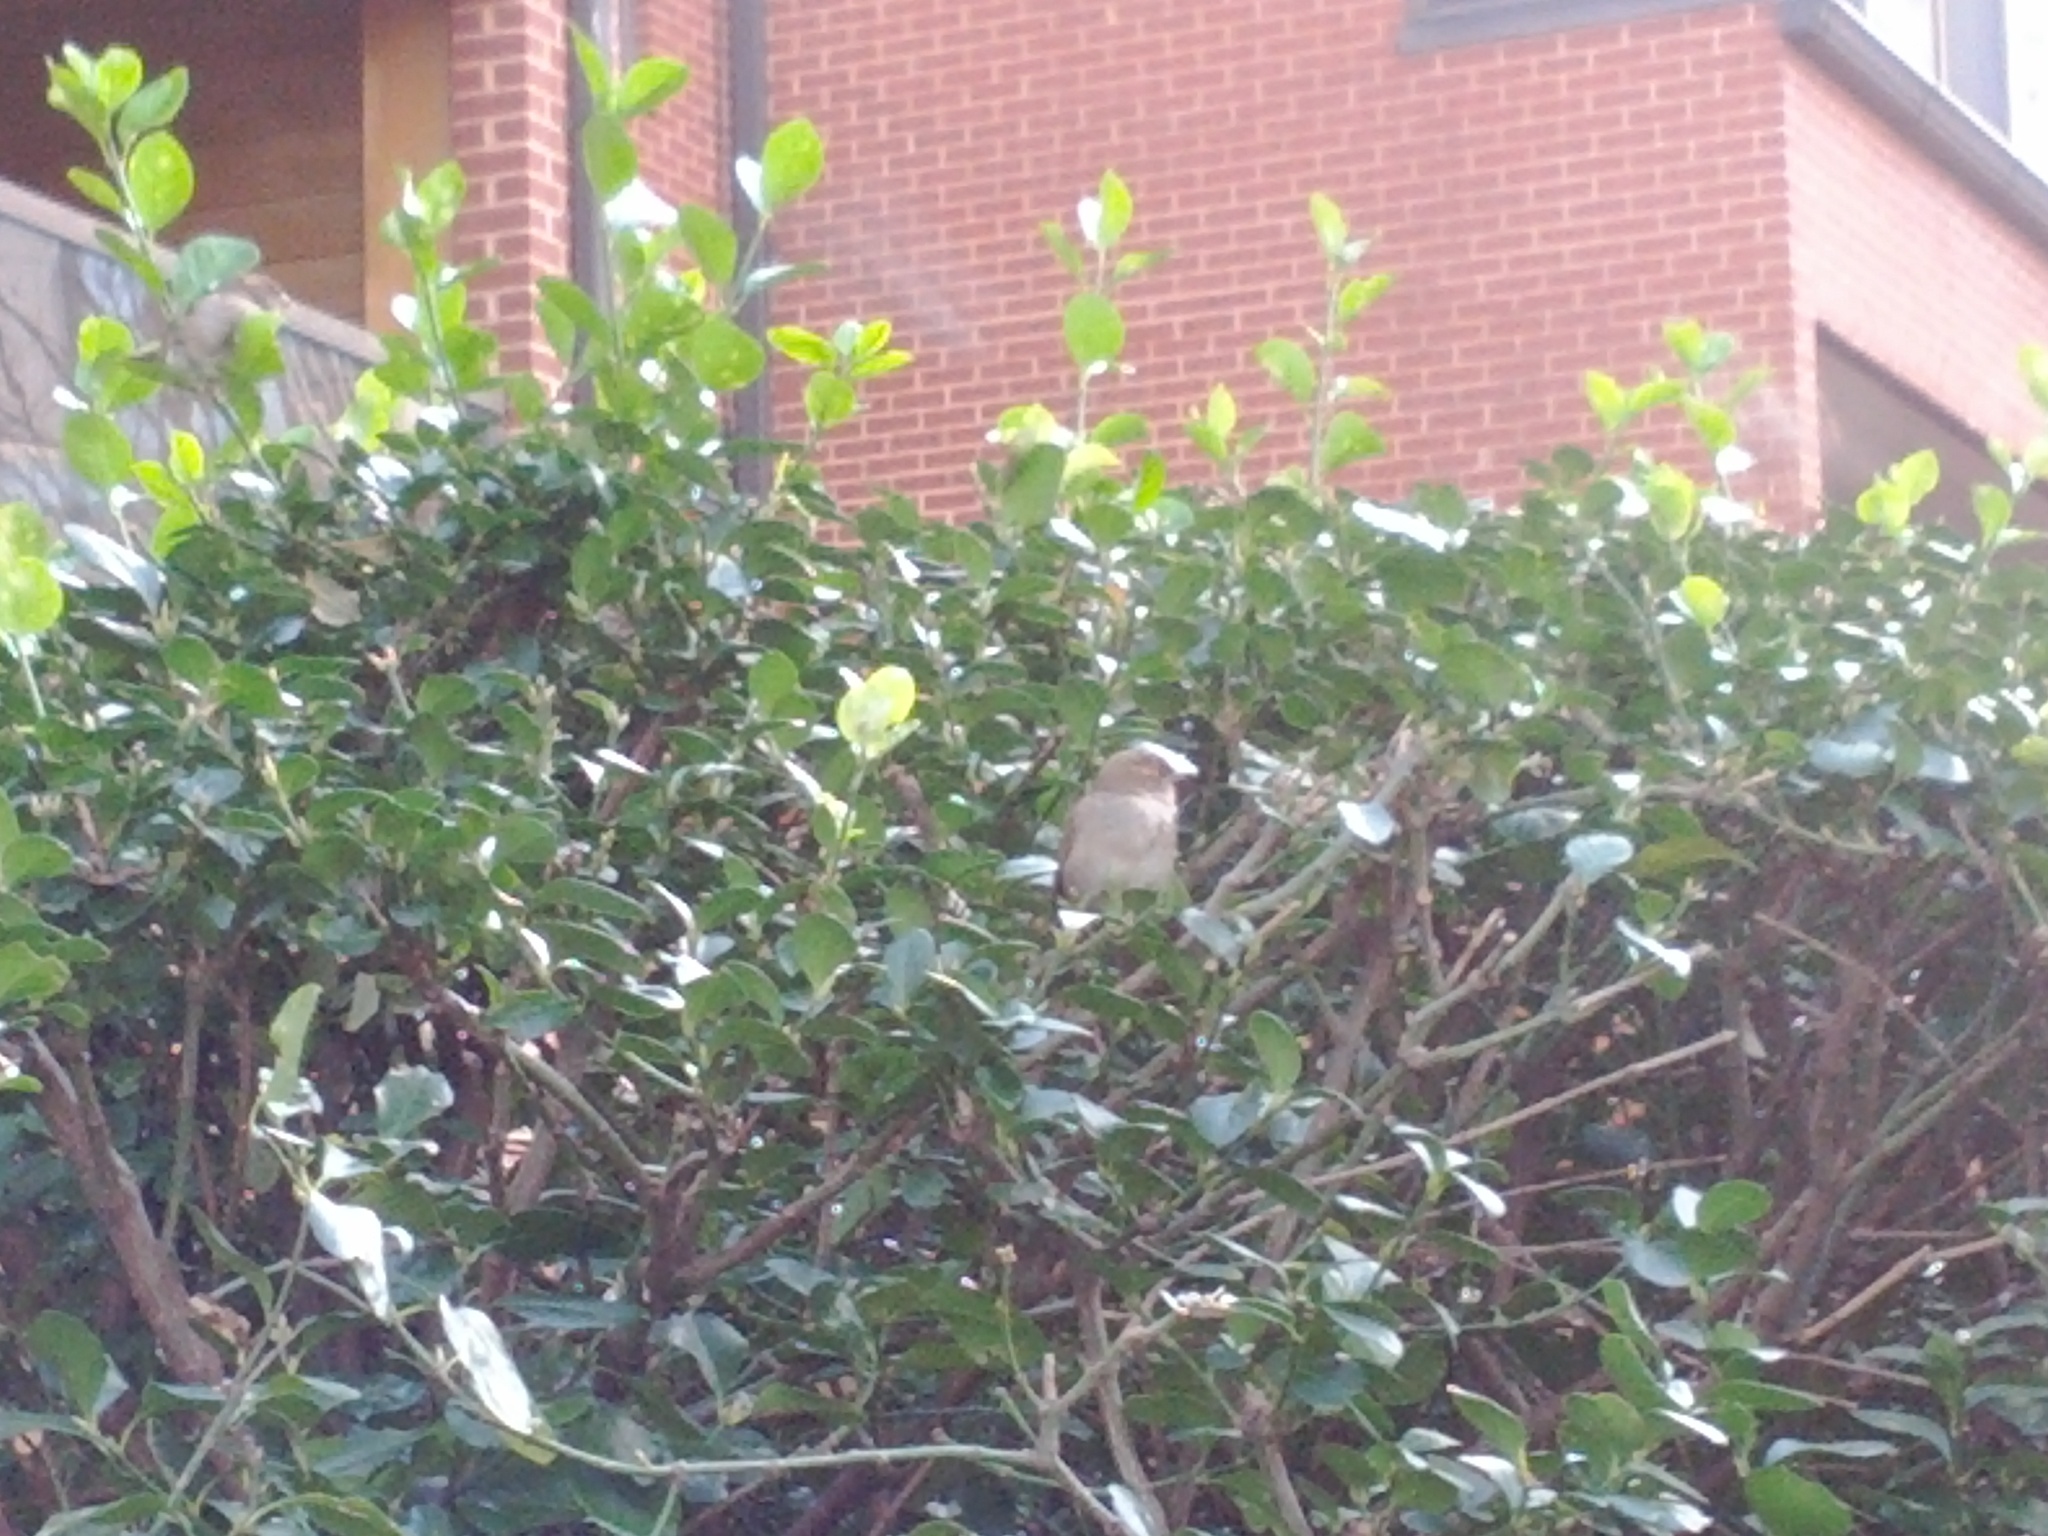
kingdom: Animalia
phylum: Chordata
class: Aves
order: Passeriformes
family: Passeridae
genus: Passer
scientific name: Passer domesticus
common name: House sparrow
